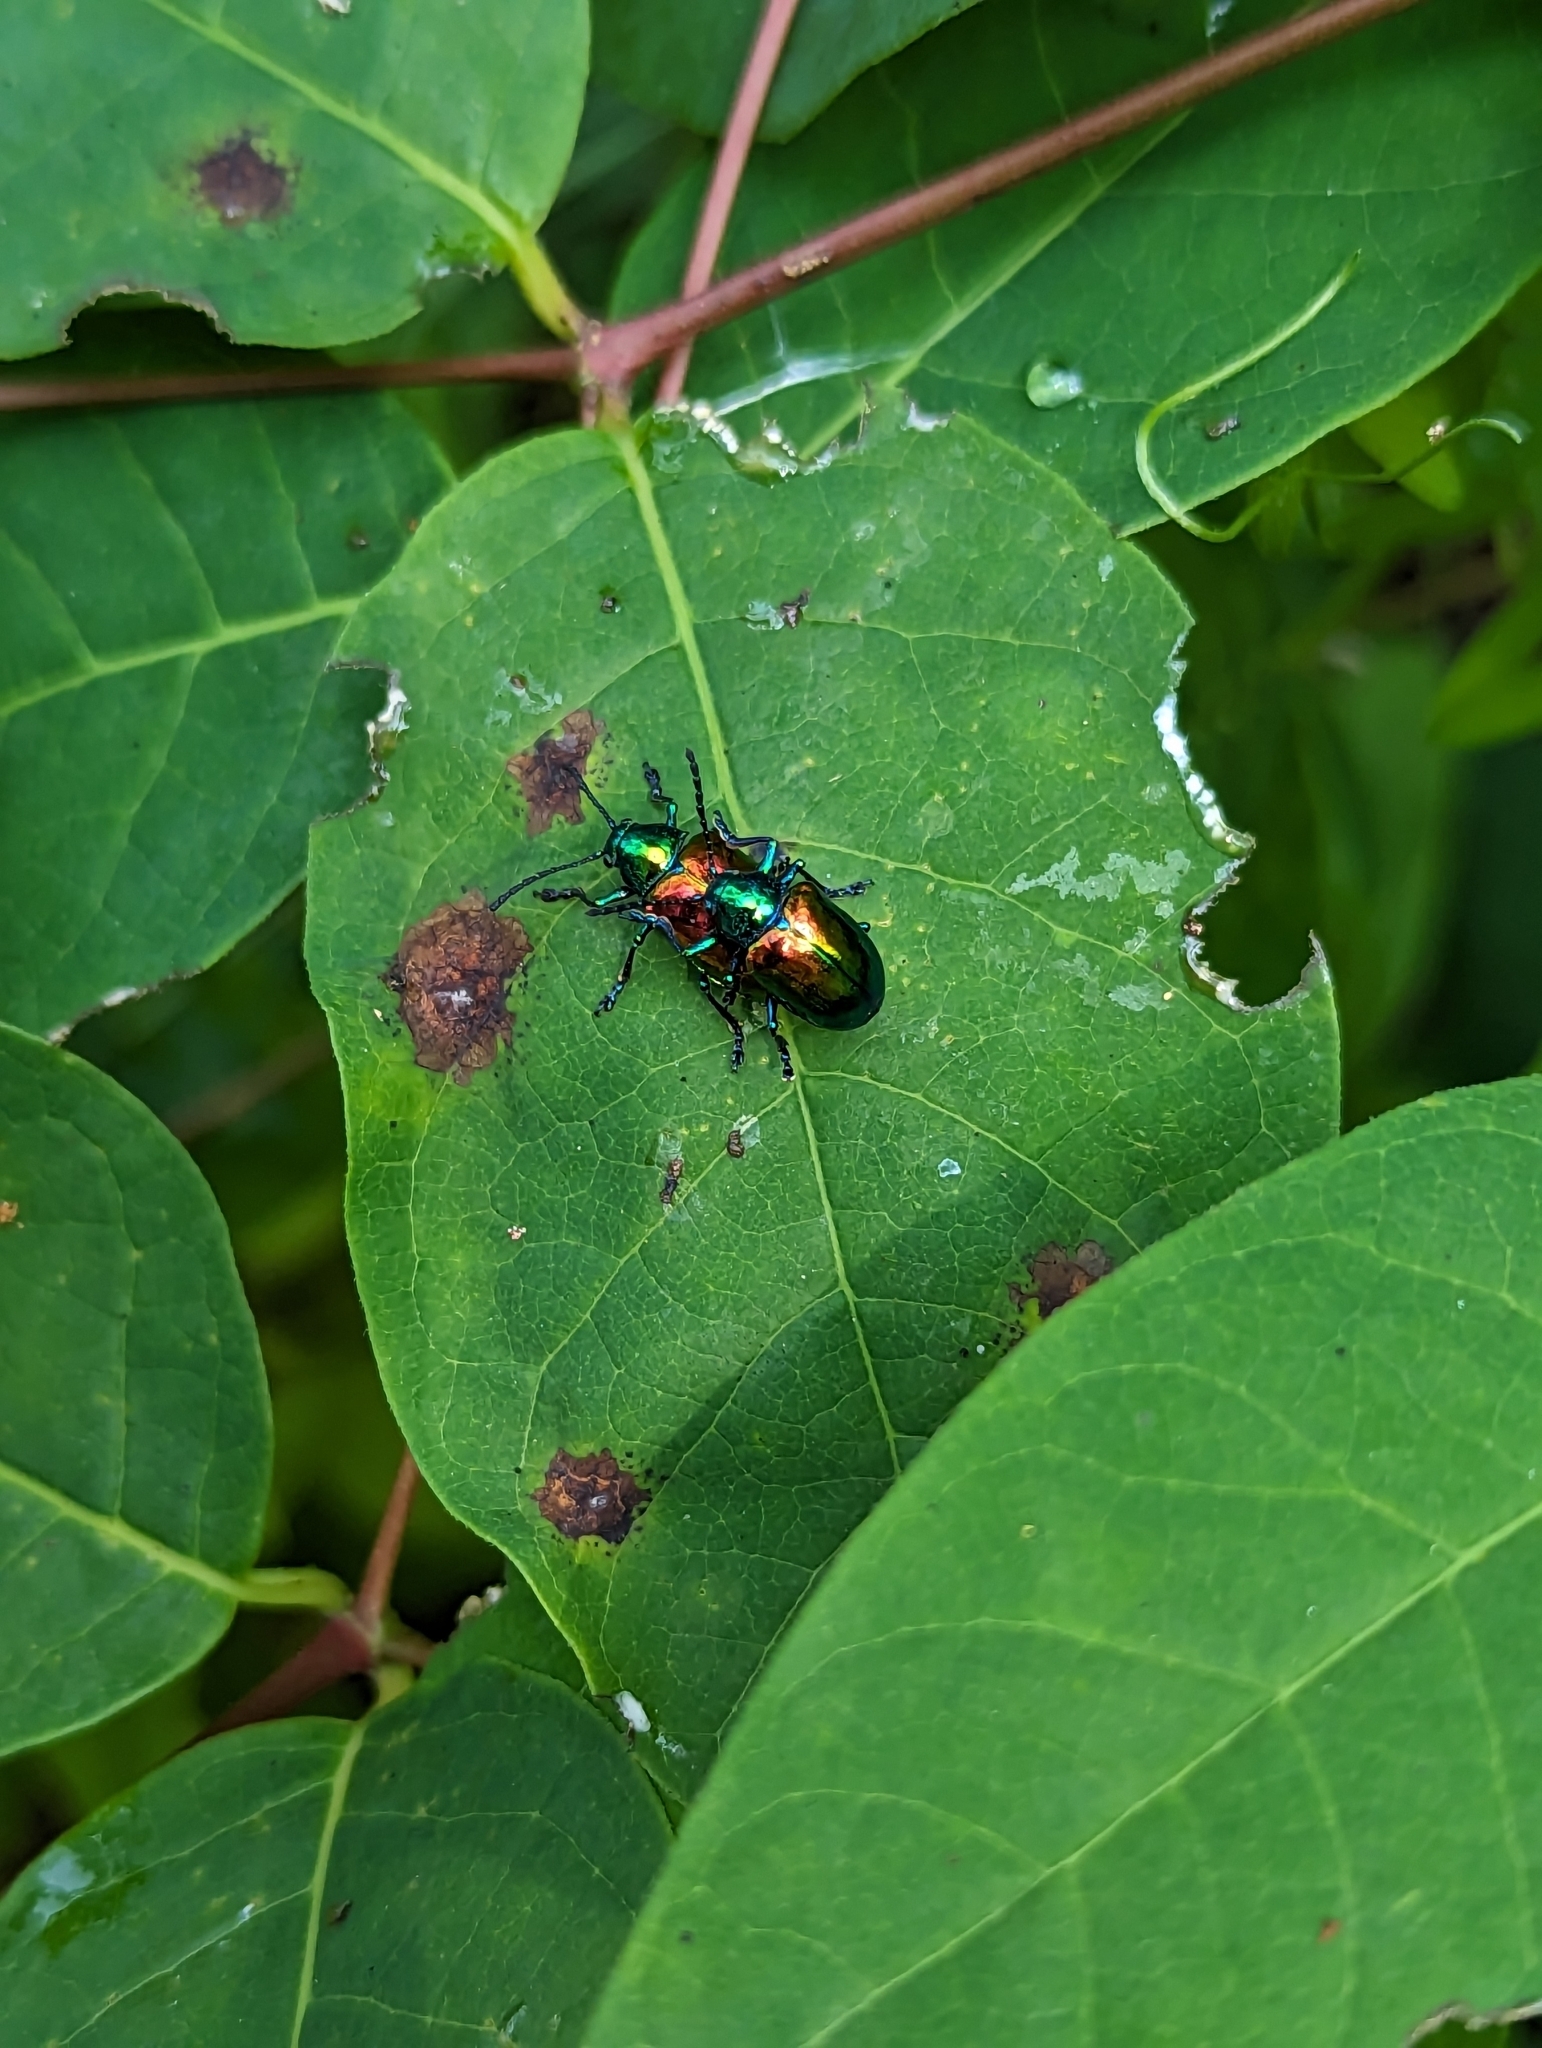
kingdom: Animalia
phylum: Arthropoda
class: Insecta
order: Coleoptera
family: Chrysomelidae
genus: Chrysochus
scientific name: Chrysochus auratus
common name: Dogbane leaf beetle
